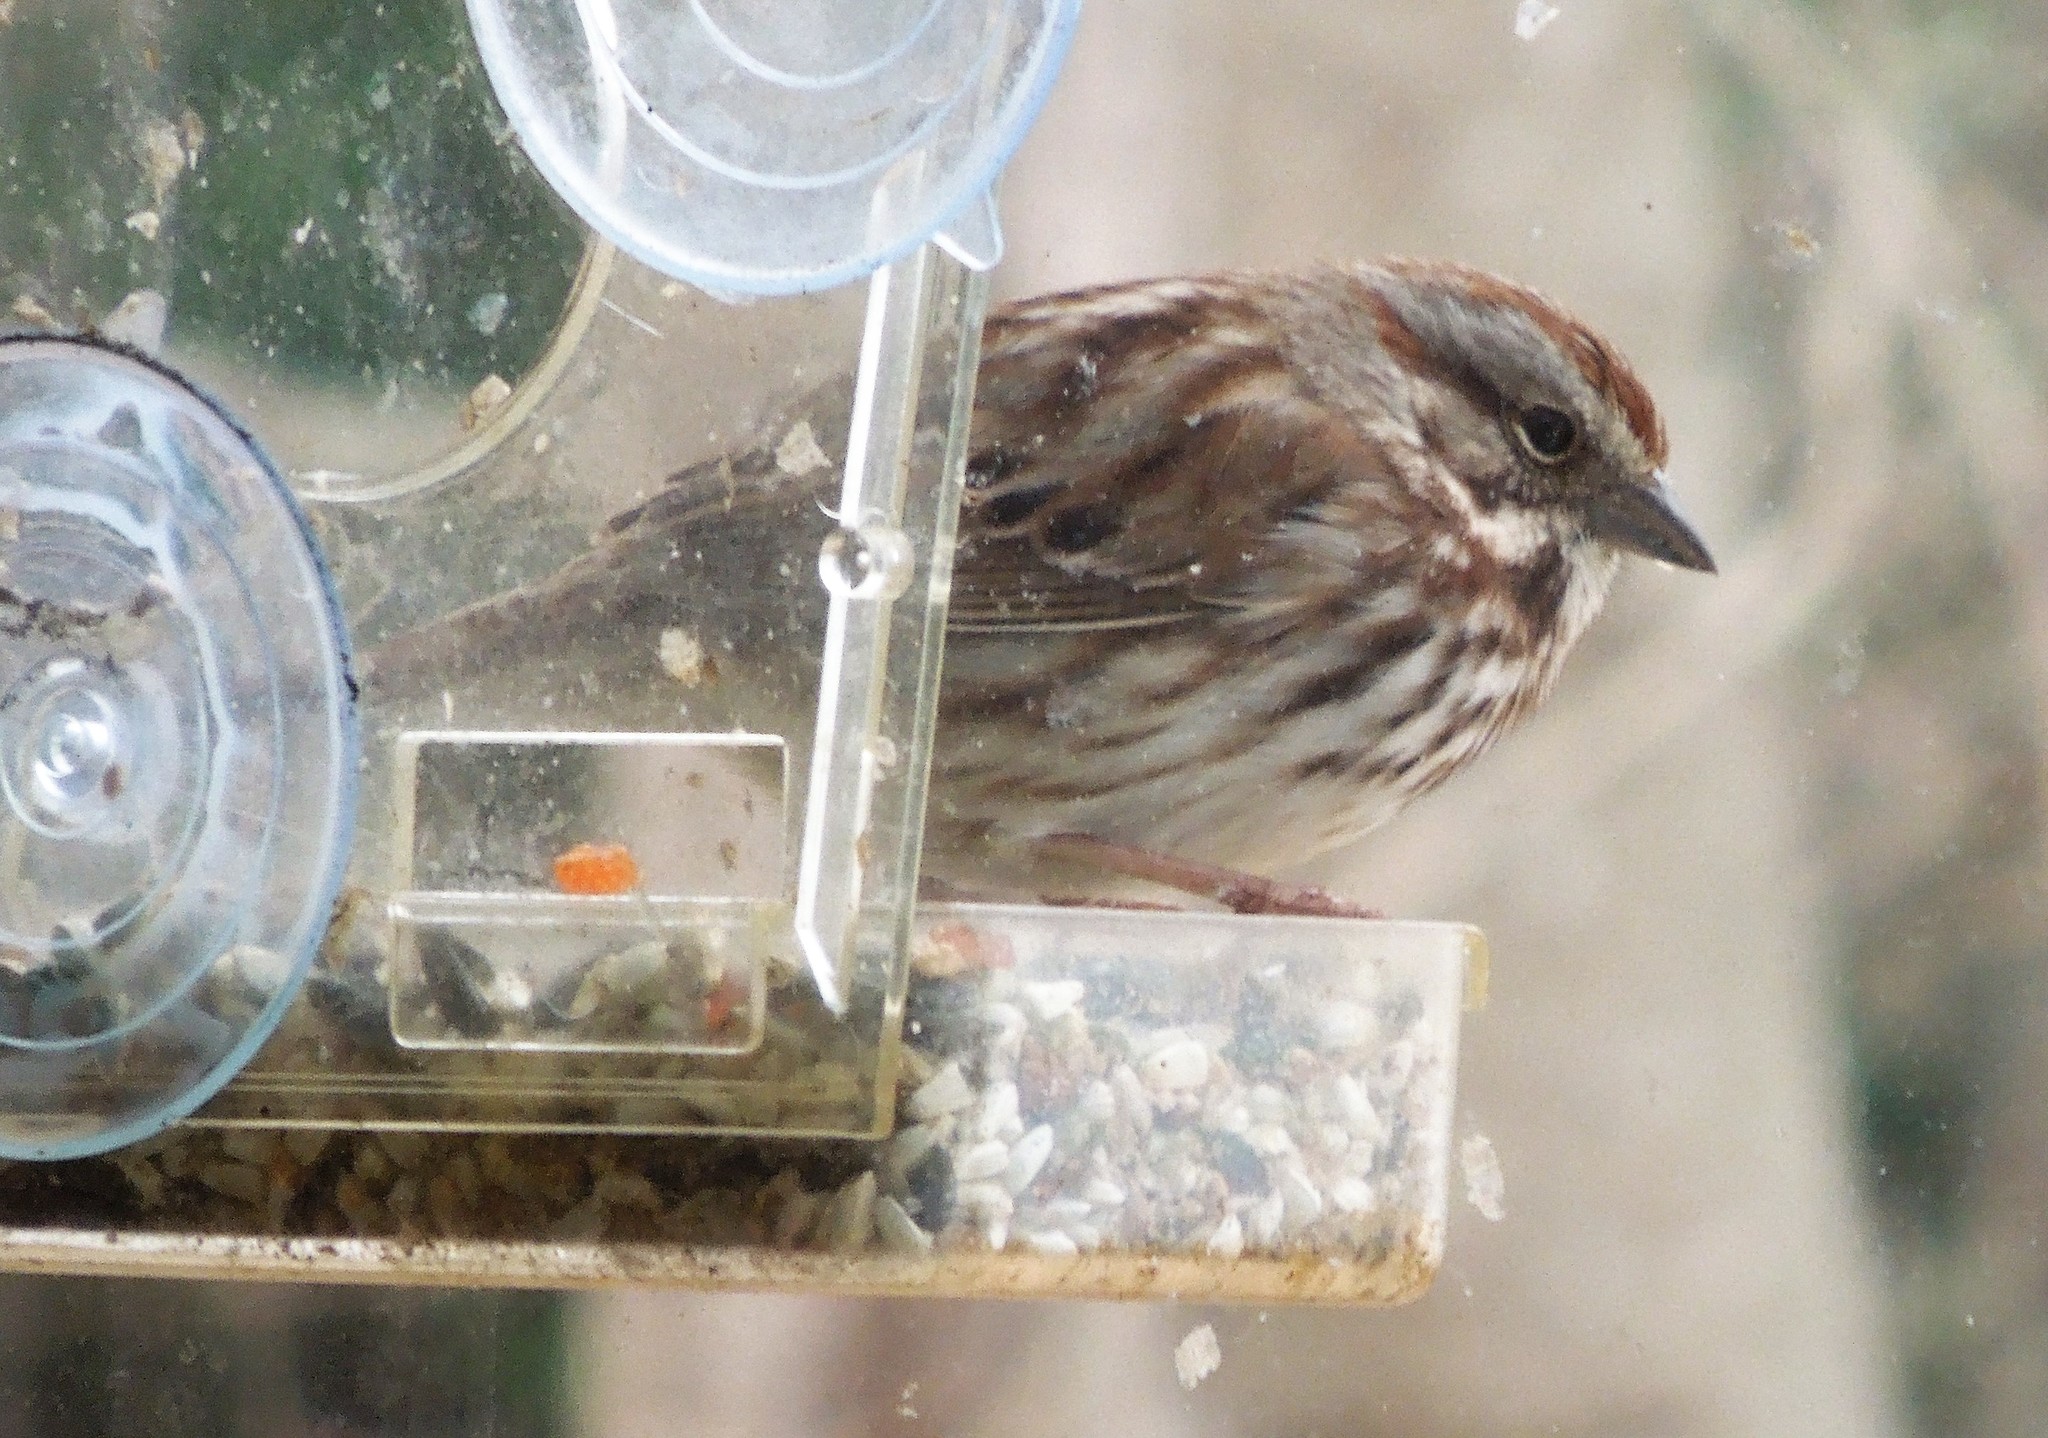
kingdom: Animalia
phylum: Chordata
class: Aves
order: Passeriformes
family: Passerellidae
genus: Melospiza
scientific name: Melospiza melodia
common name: Song sparrow
